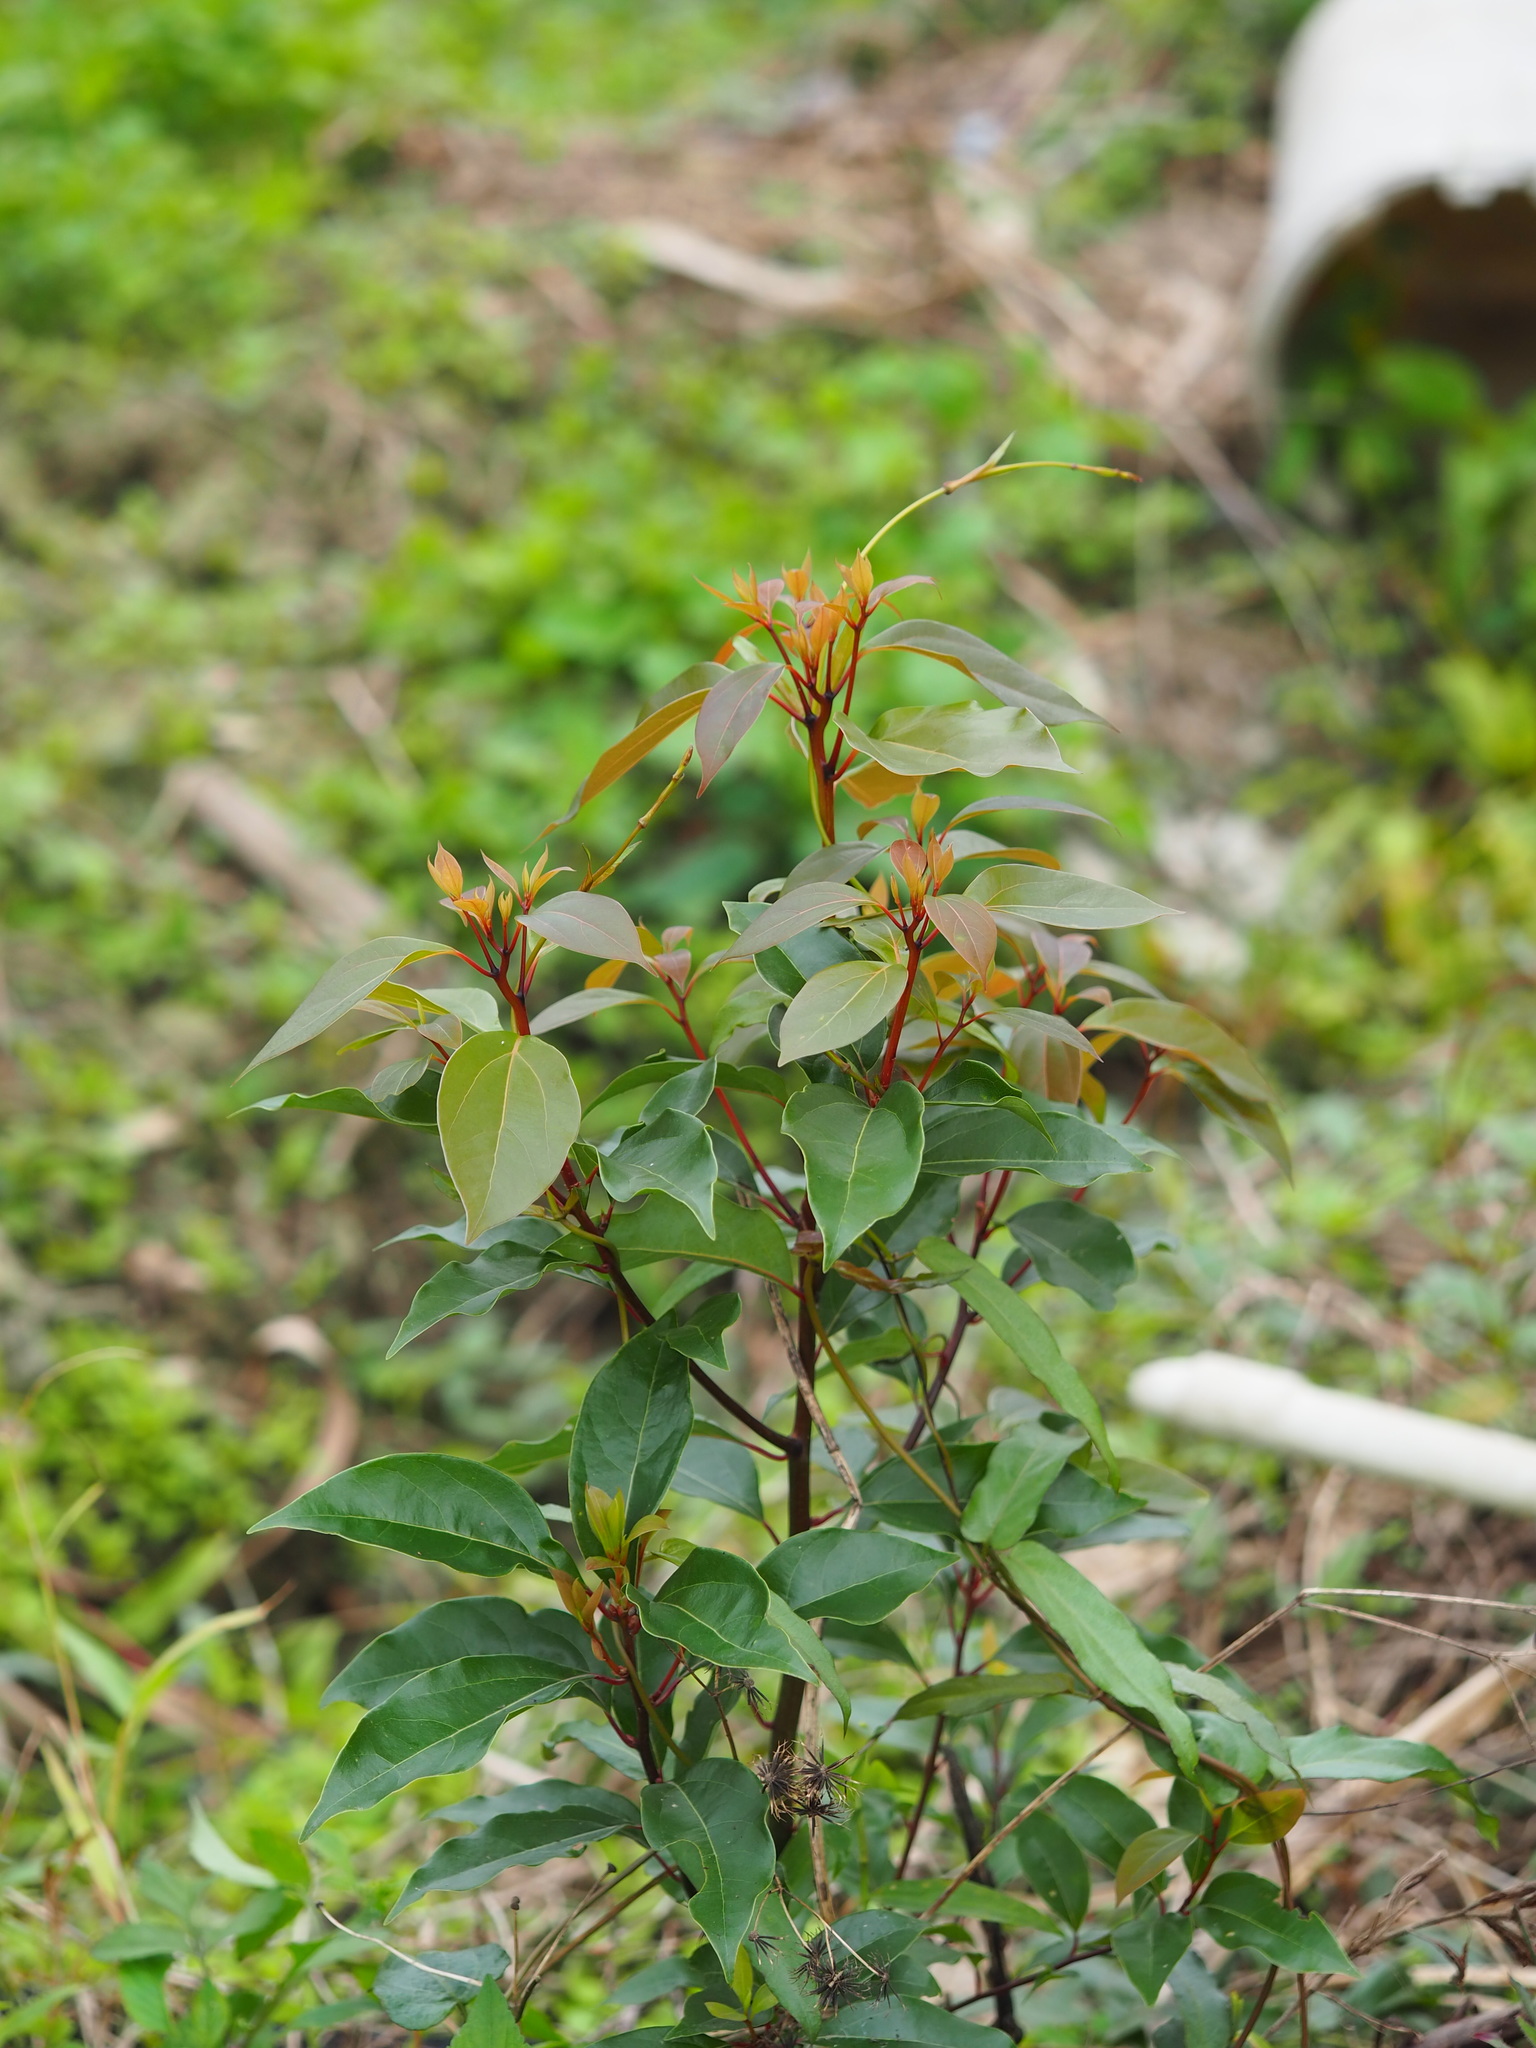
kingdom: Plantae
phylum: Tracheophyta
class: Magnoliopsida
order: Laurales
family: Lauraceae
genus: Cinnamomum
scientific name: Cinnamomum camphora
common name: Camphortree
